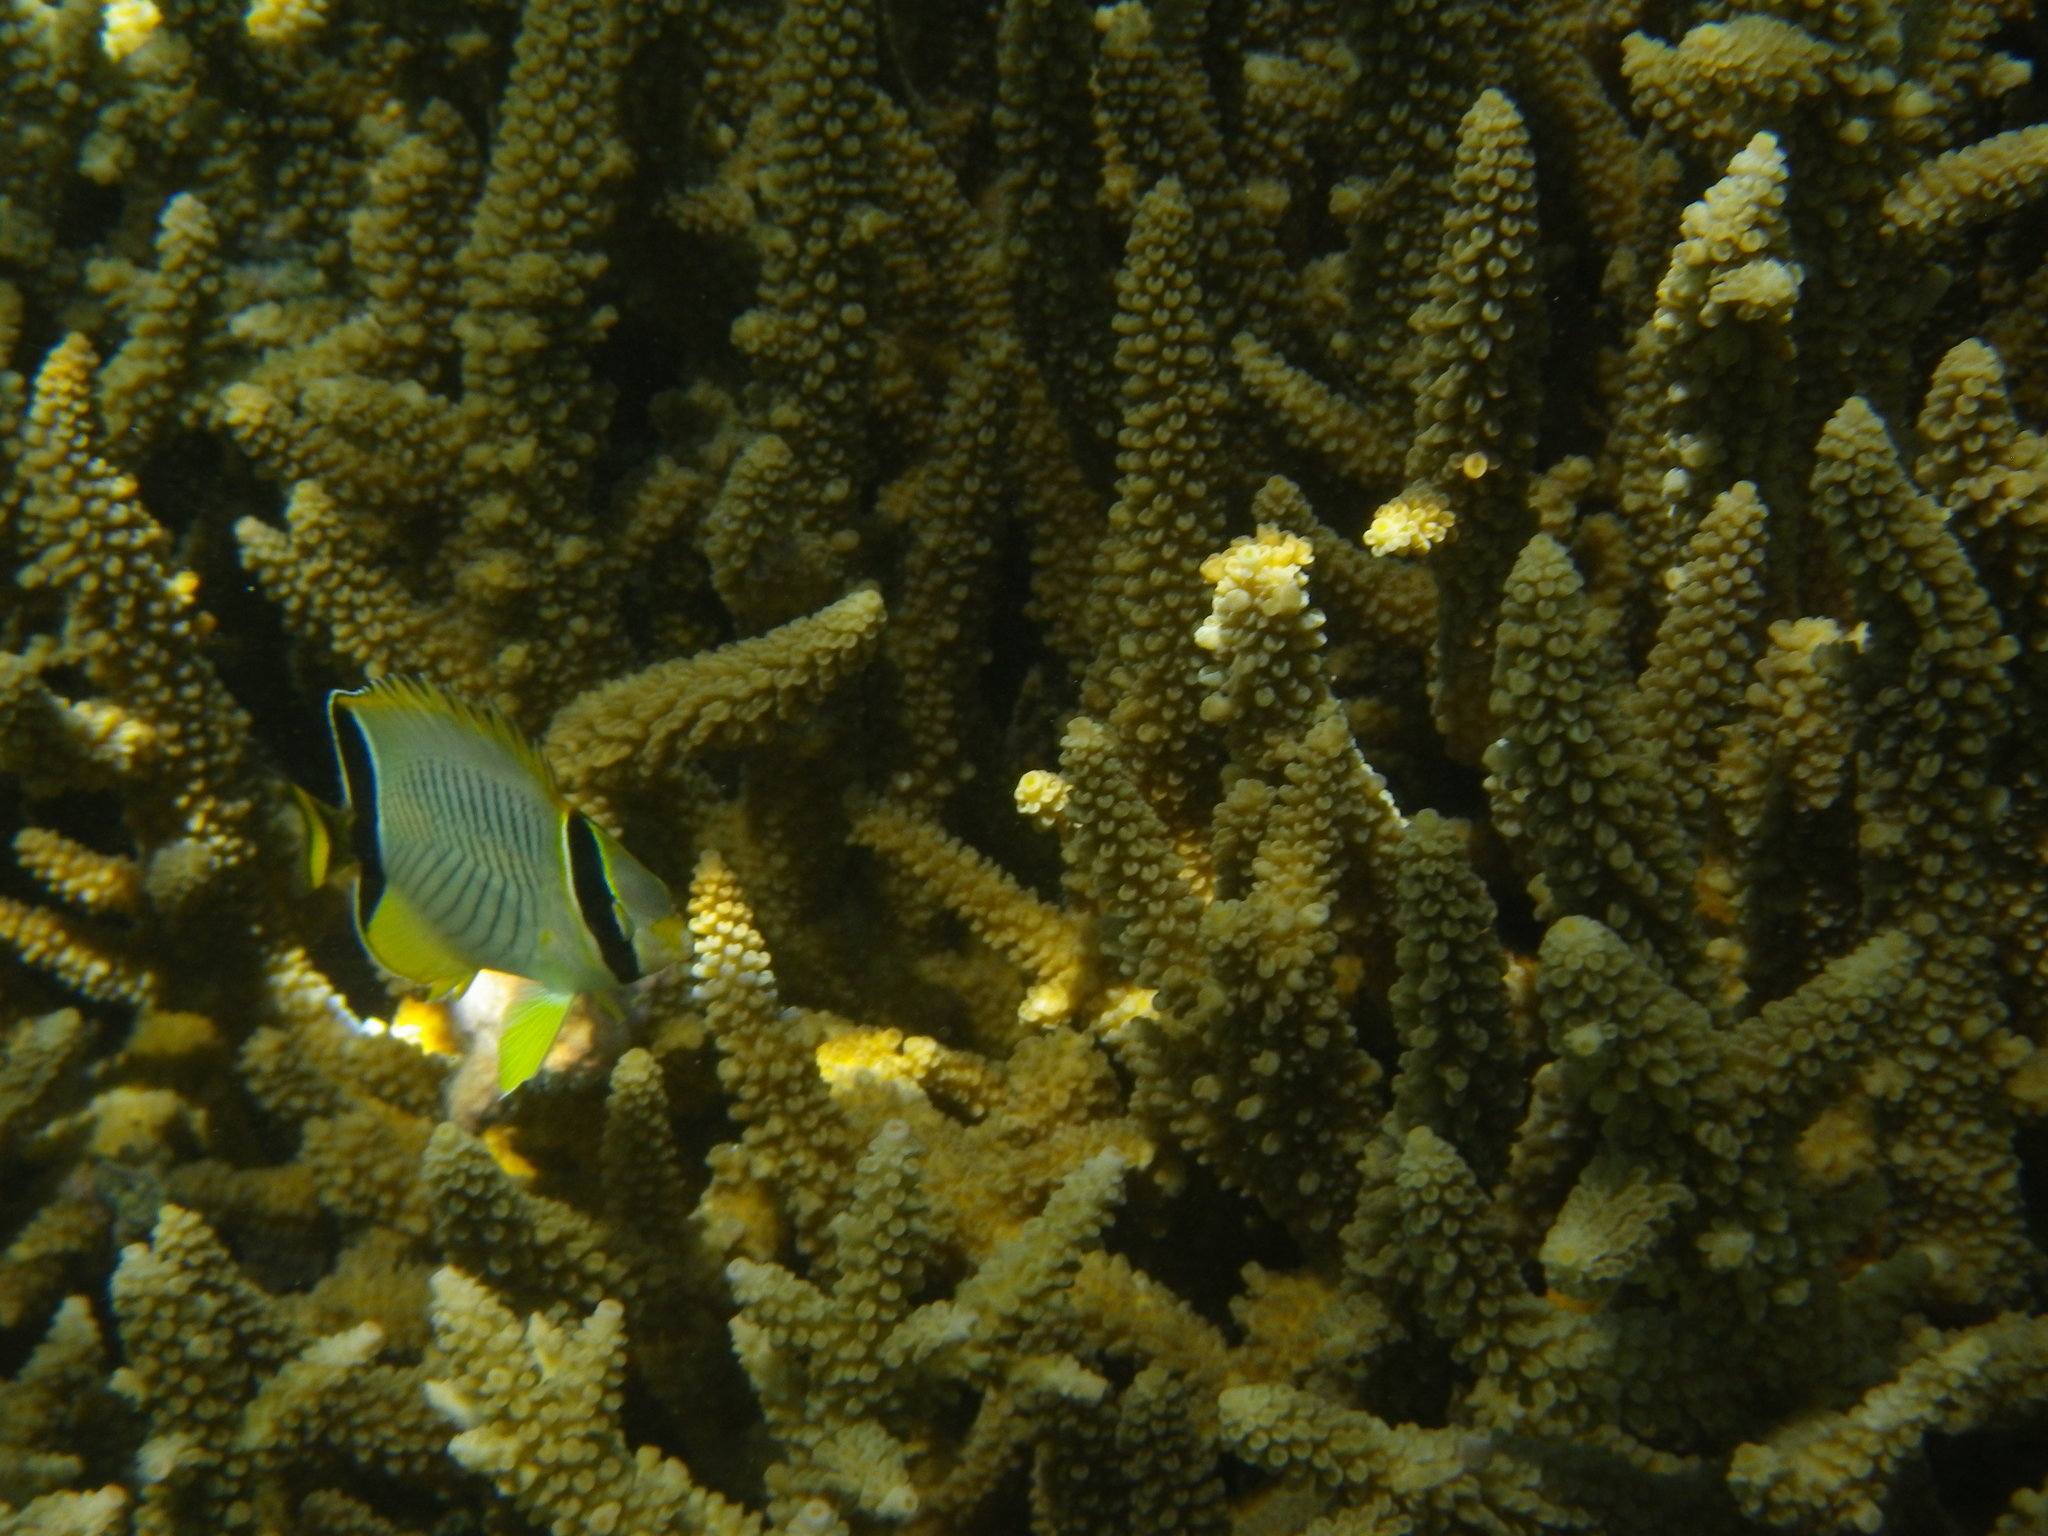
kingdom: Animalia
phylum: Chordata
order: Perciformes
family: Chaetodontidae
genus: Chaetodon
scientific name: Chaetodon trifascialis
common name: Chevroned butterflyfish
